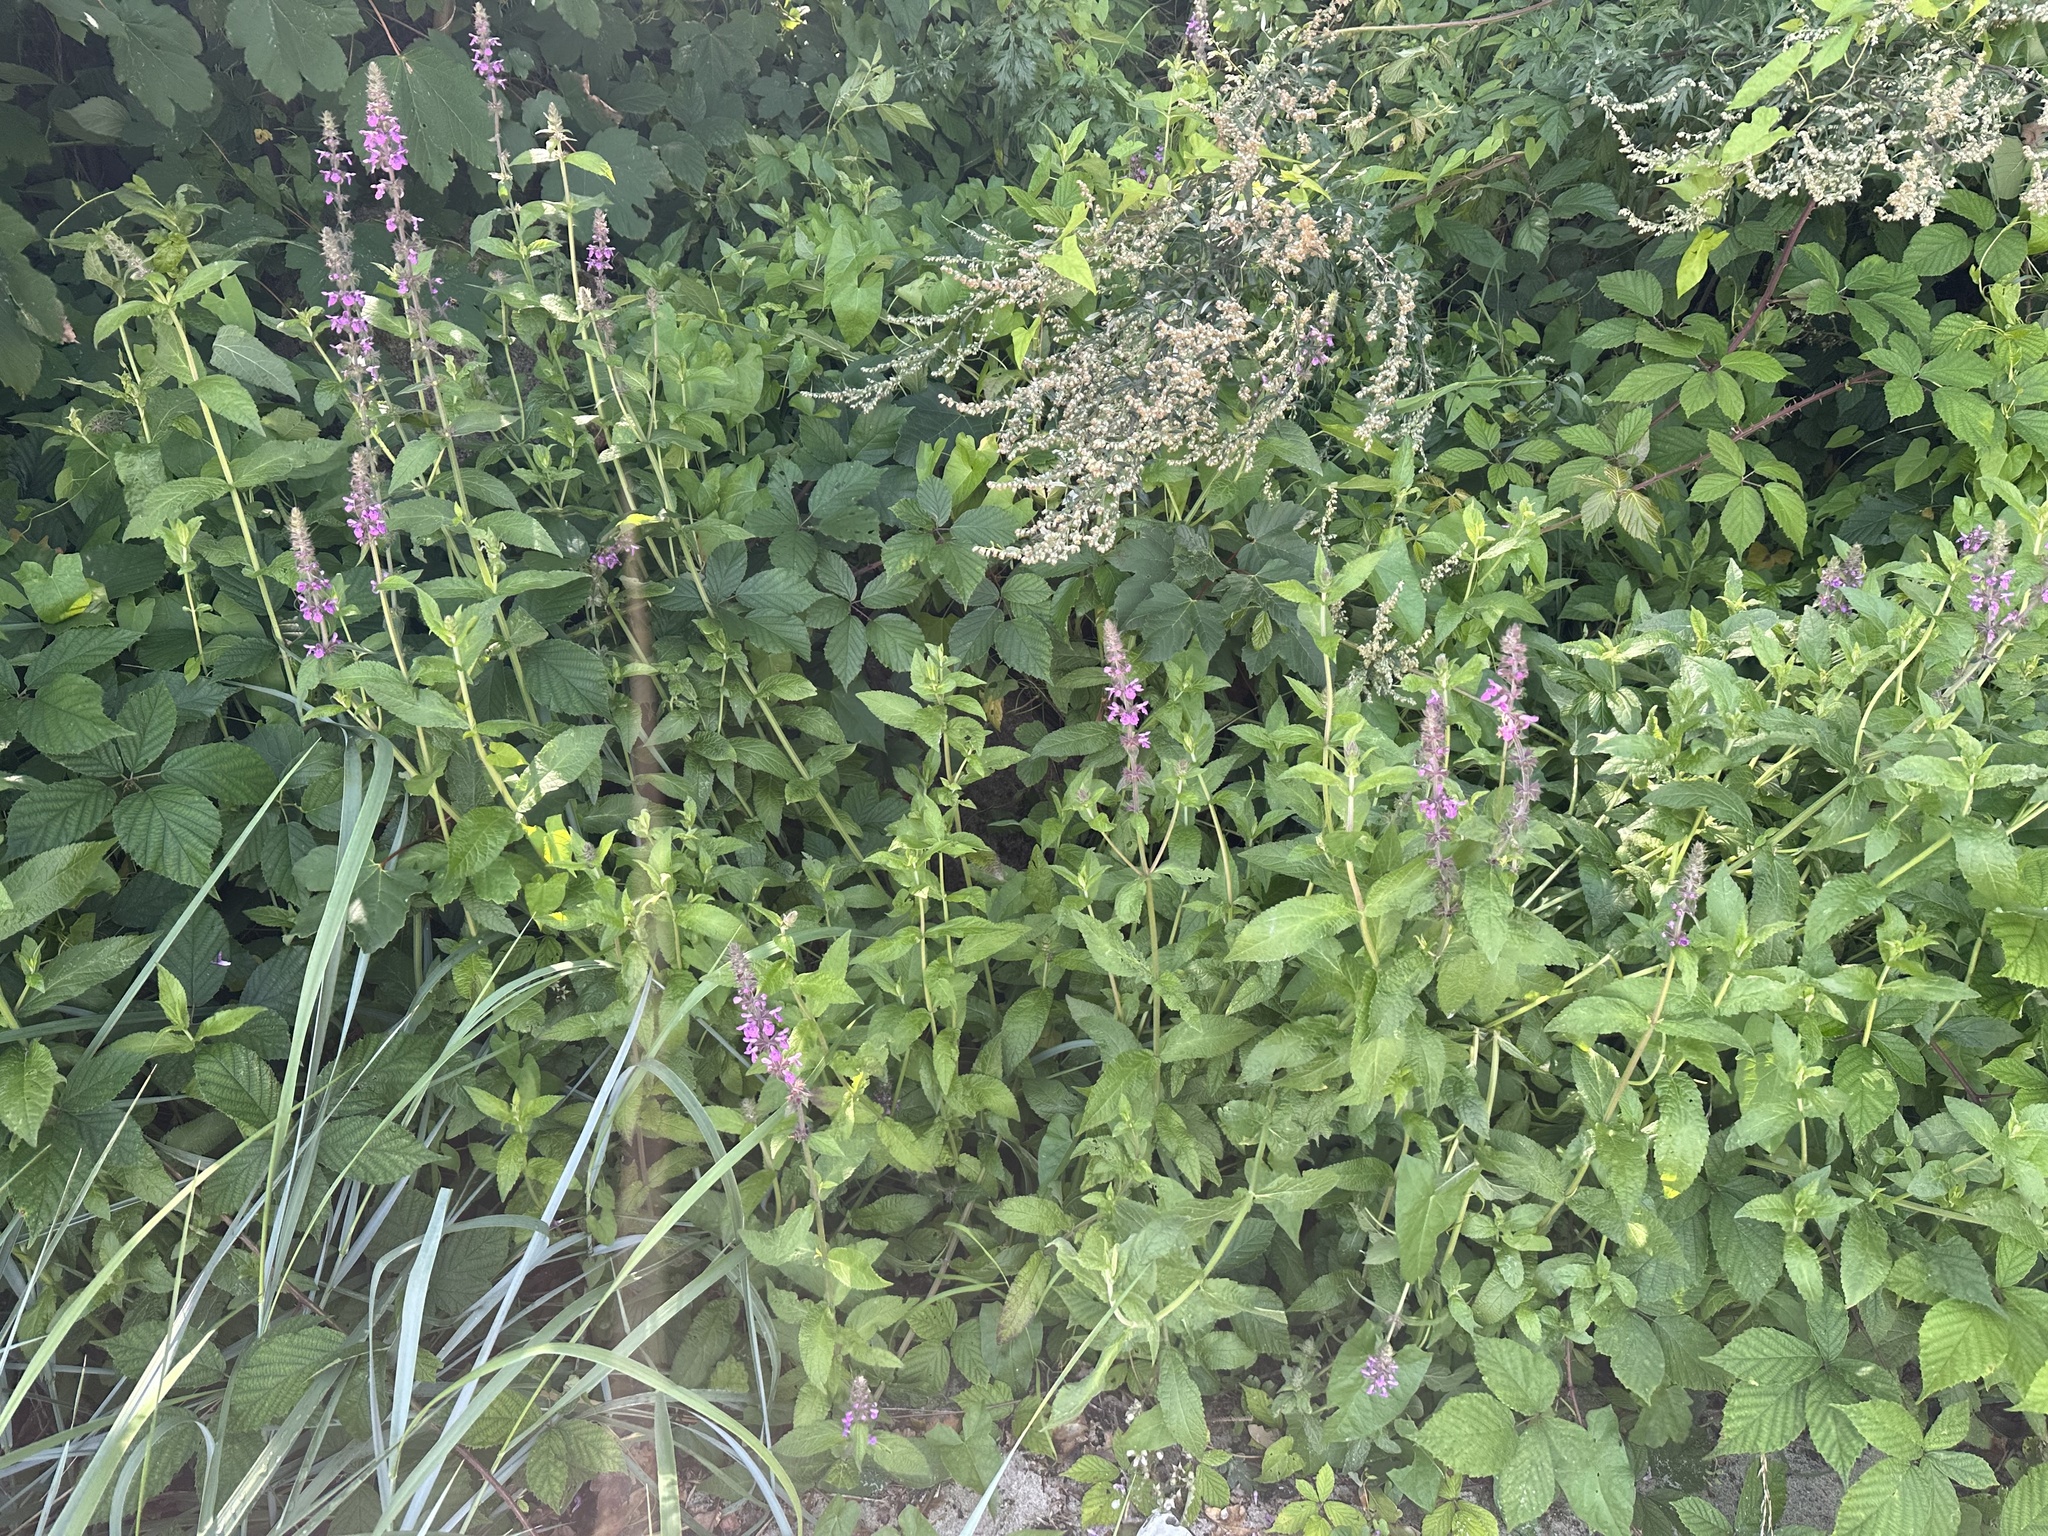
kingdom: Plantae
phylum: Tracheophyta
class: Magnoliopsida
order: Lamiales
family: Lamiaceae
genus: Stachys
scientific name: Stachys palustris
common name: Marsh woundwort
